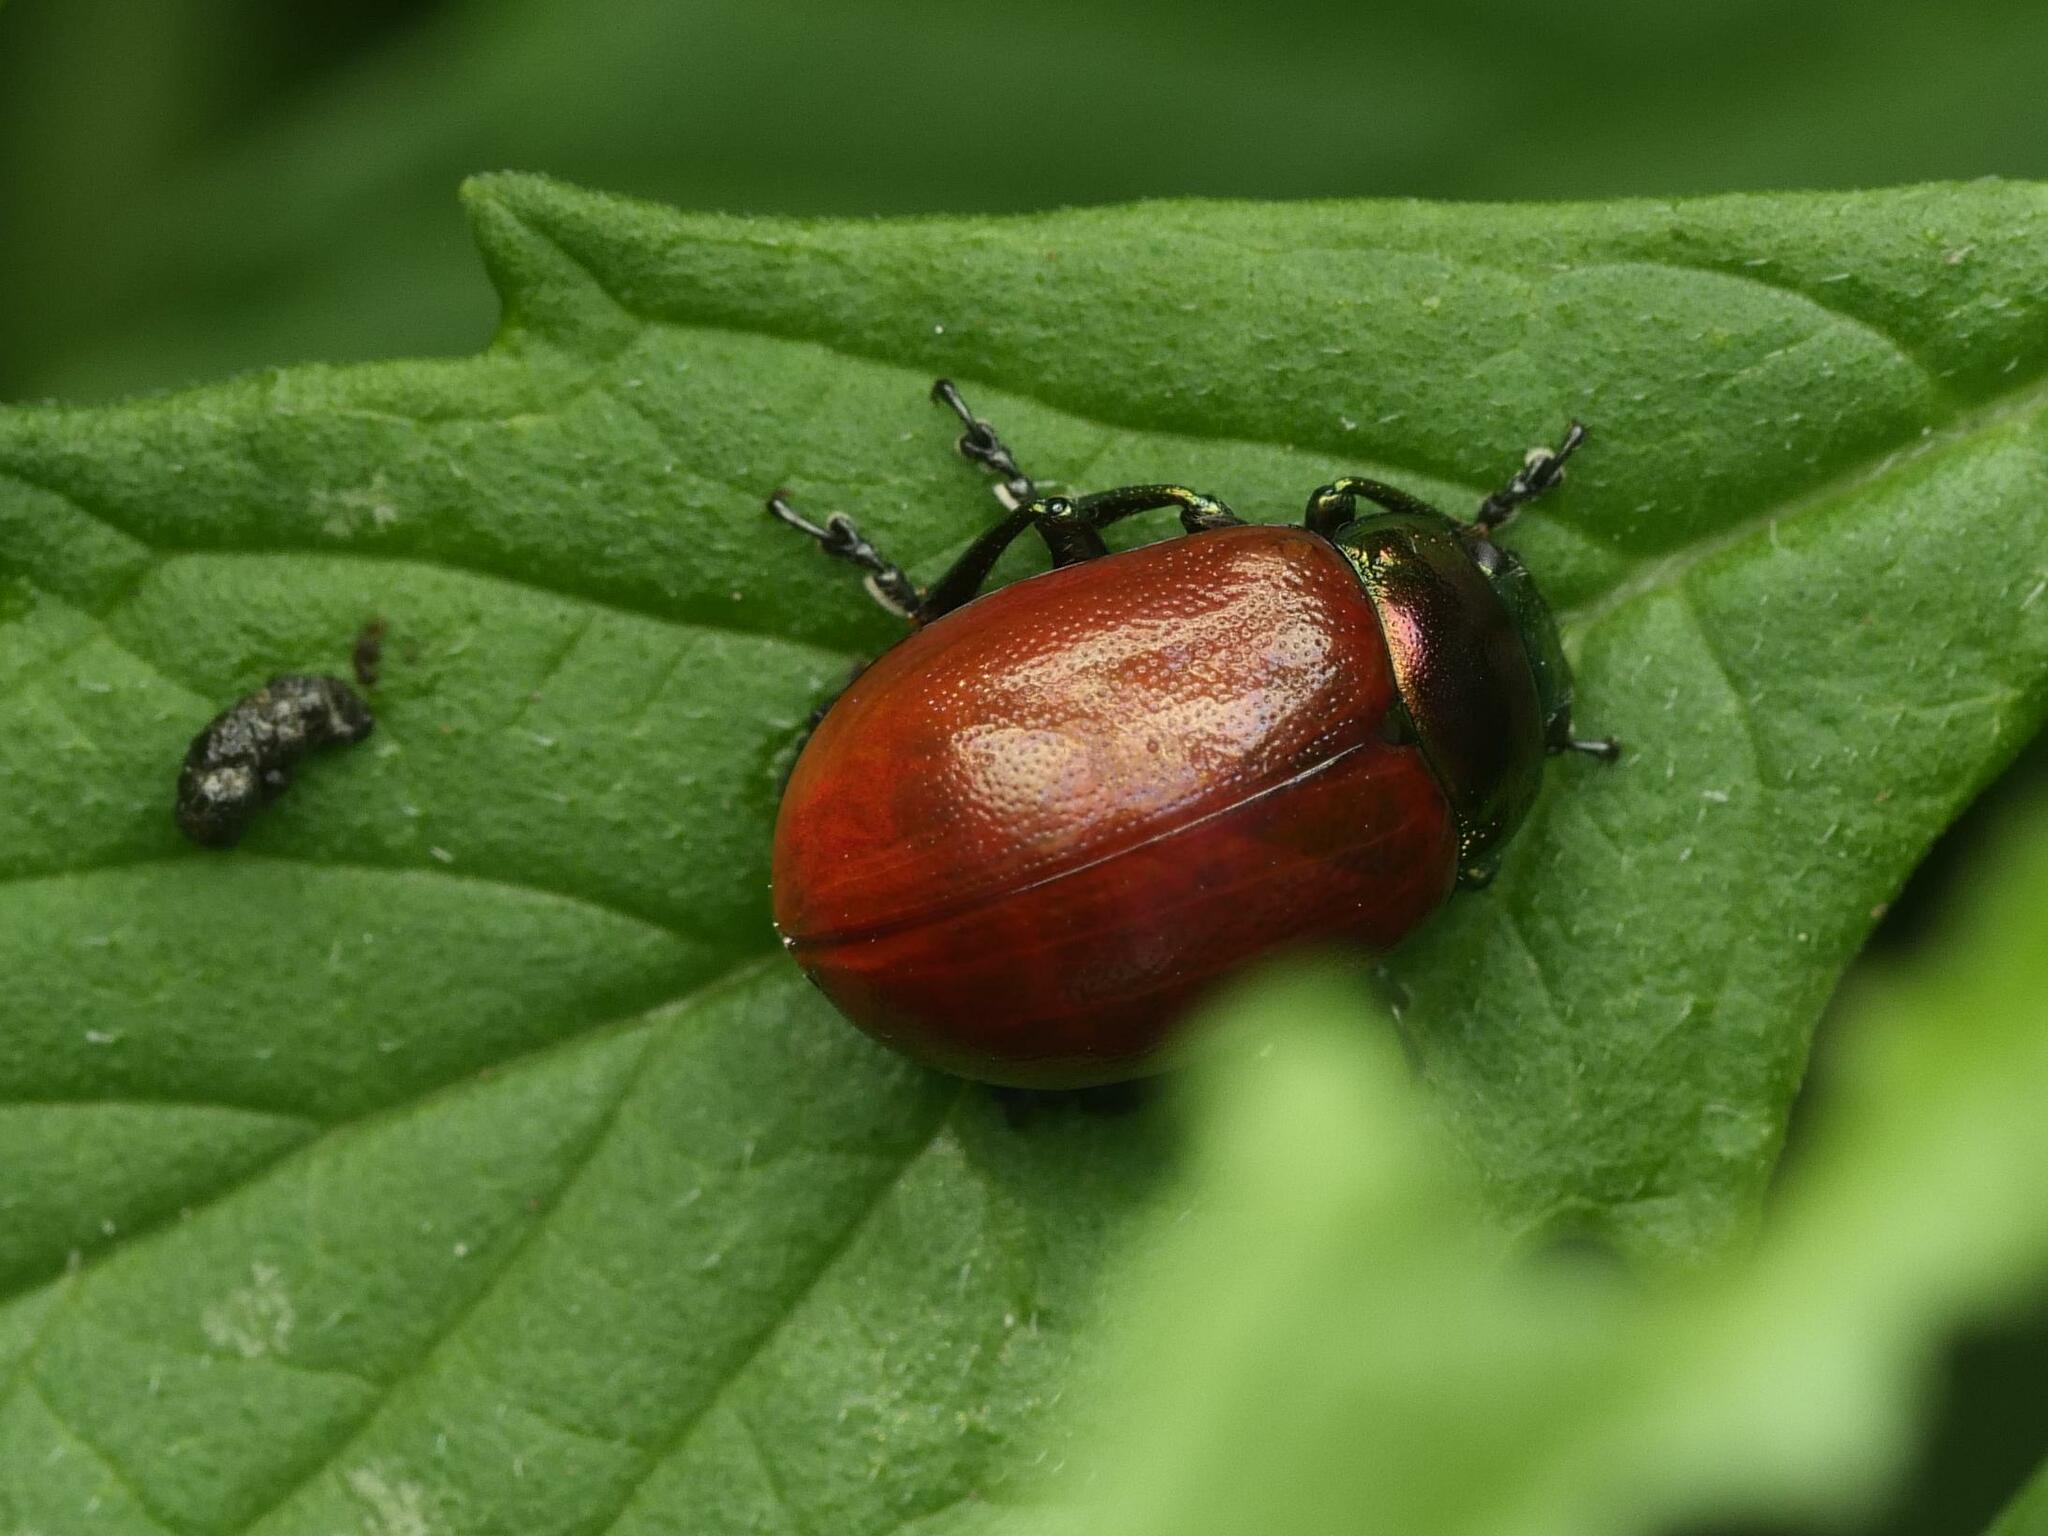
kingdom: Animalia
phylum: Arthropoda
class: Insecta
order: Coleoptera
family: Chrysomelidae
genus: Chrysomela
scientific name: Chrysomela polita
